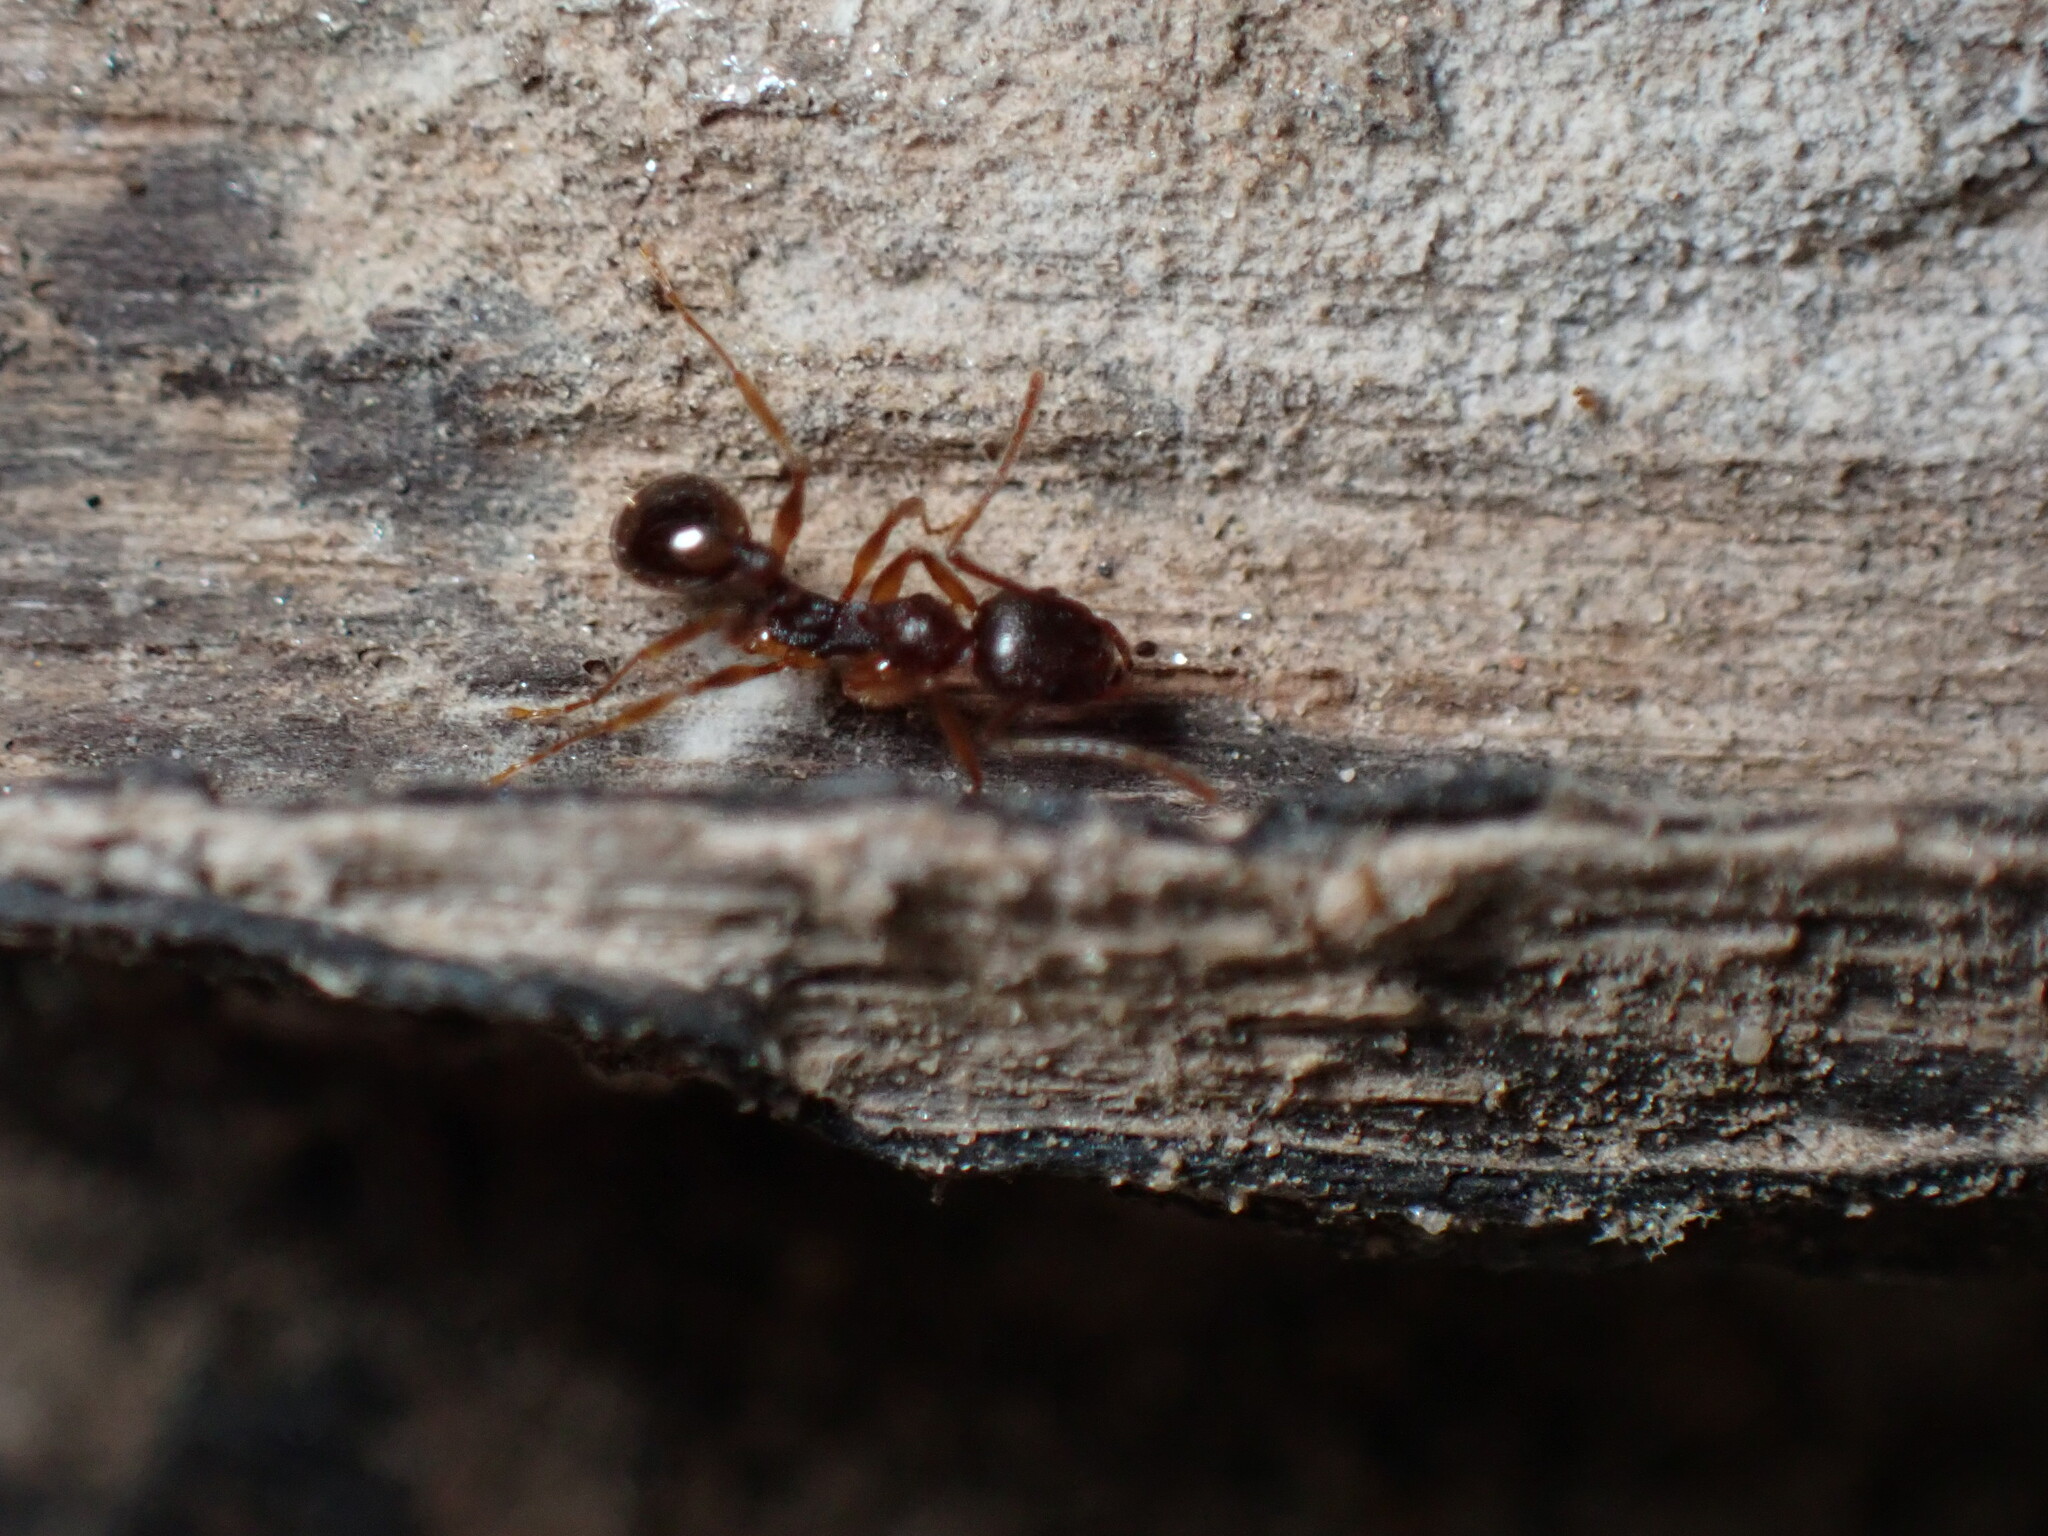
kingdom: Animalia
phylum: Arthropoda
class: Insecta
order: Hymenoptera
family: Formicidae
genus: Aphaenogaster
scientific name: Aphaenogaster rudis
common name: Winnow ant
